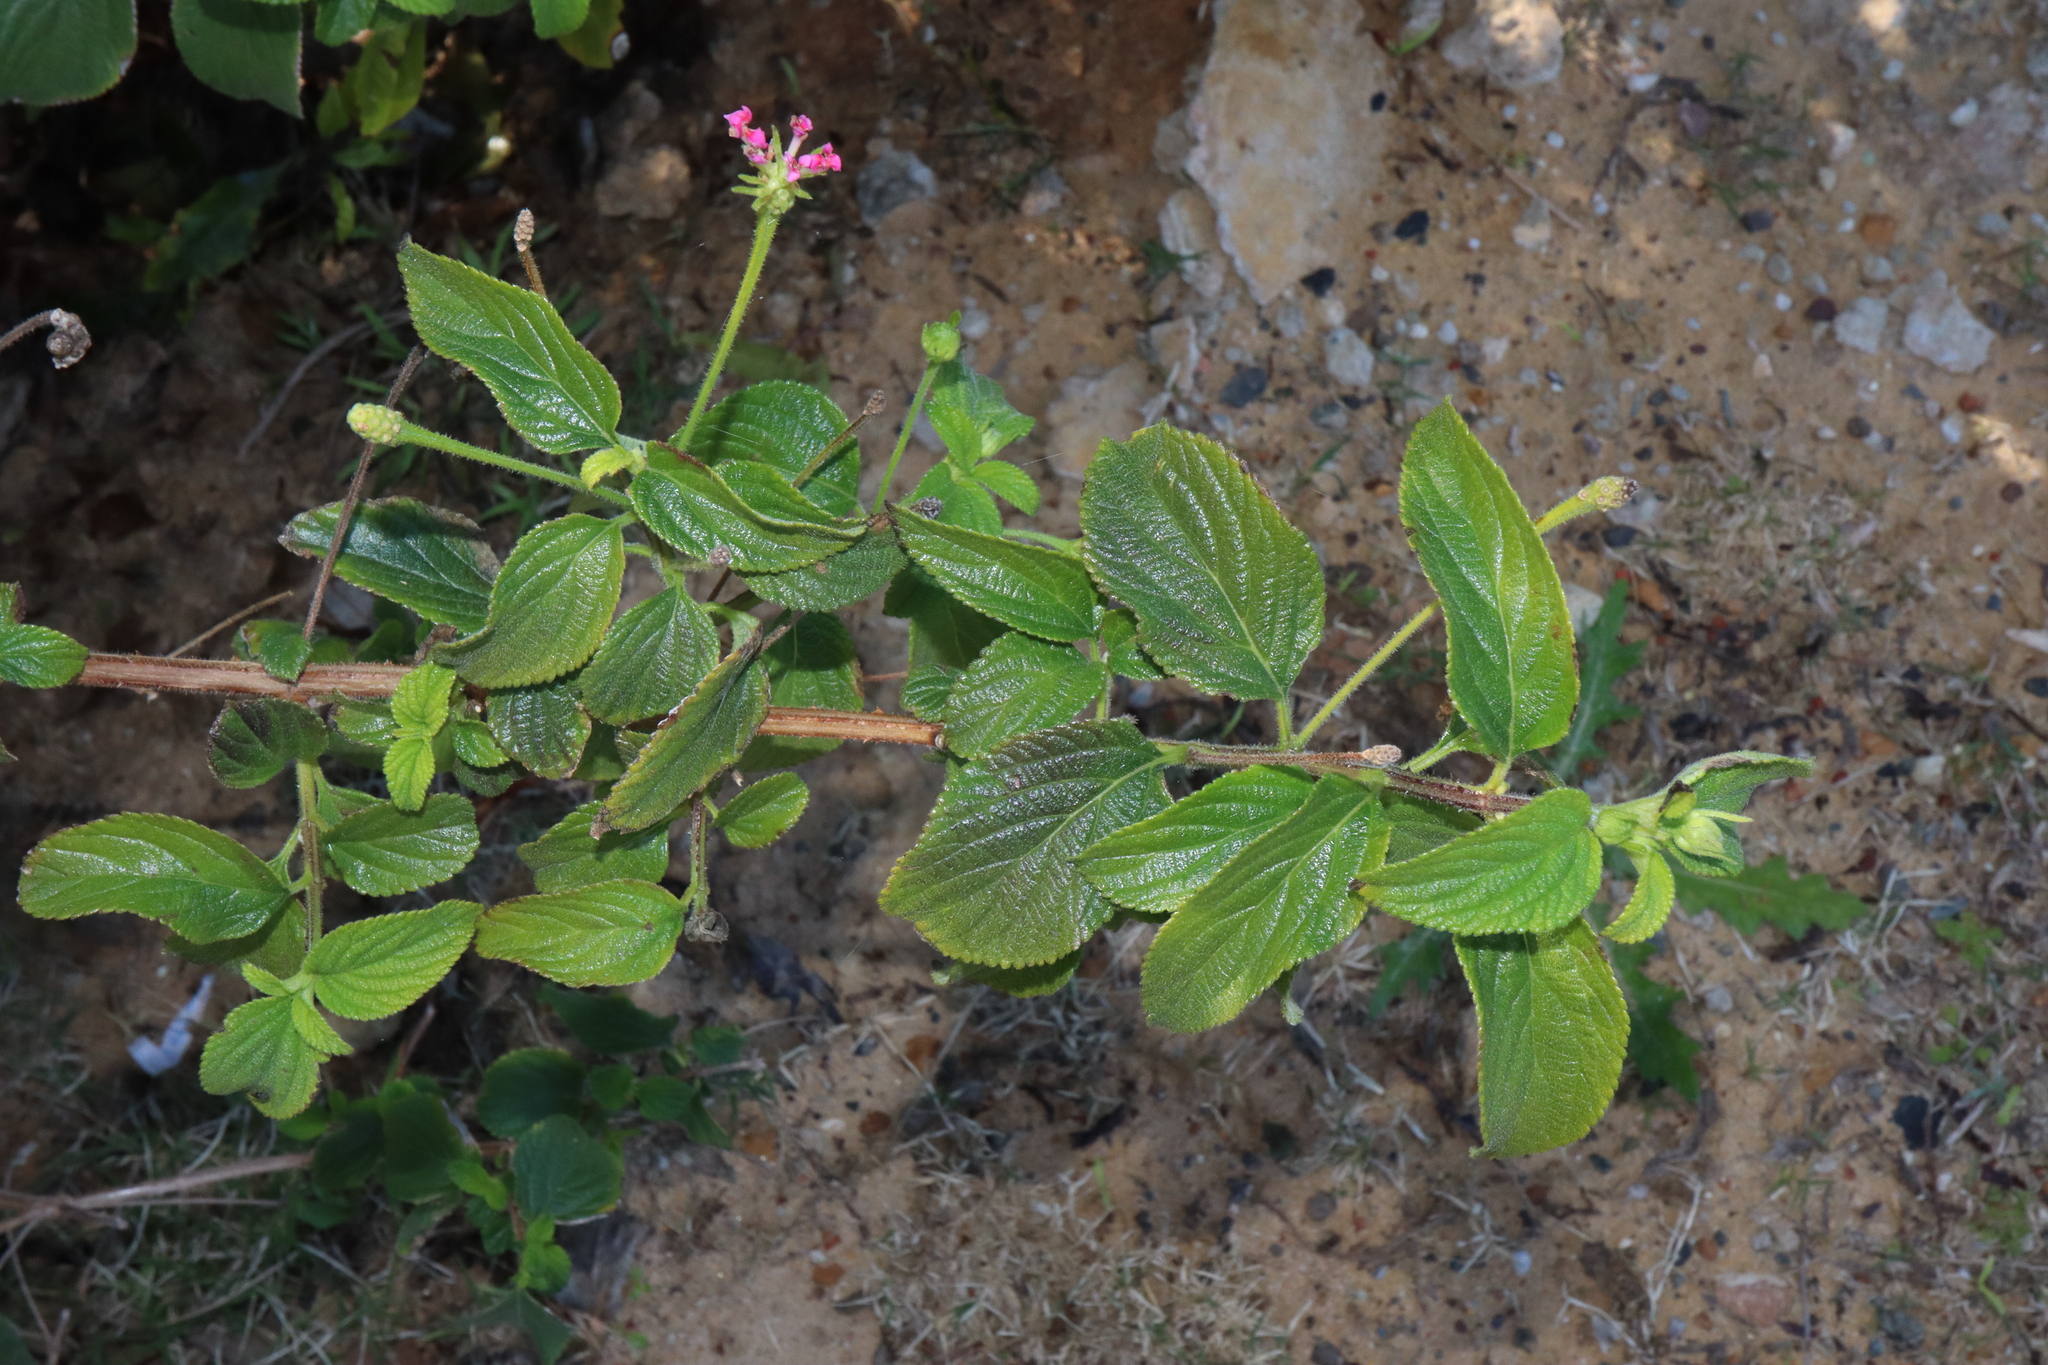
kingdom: Plantae
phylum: Tracheophyta
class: Magnoliopsida
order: Lamiales
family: Verbenaceae
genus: Lantana
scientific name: Lantana camara
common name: Lantana
